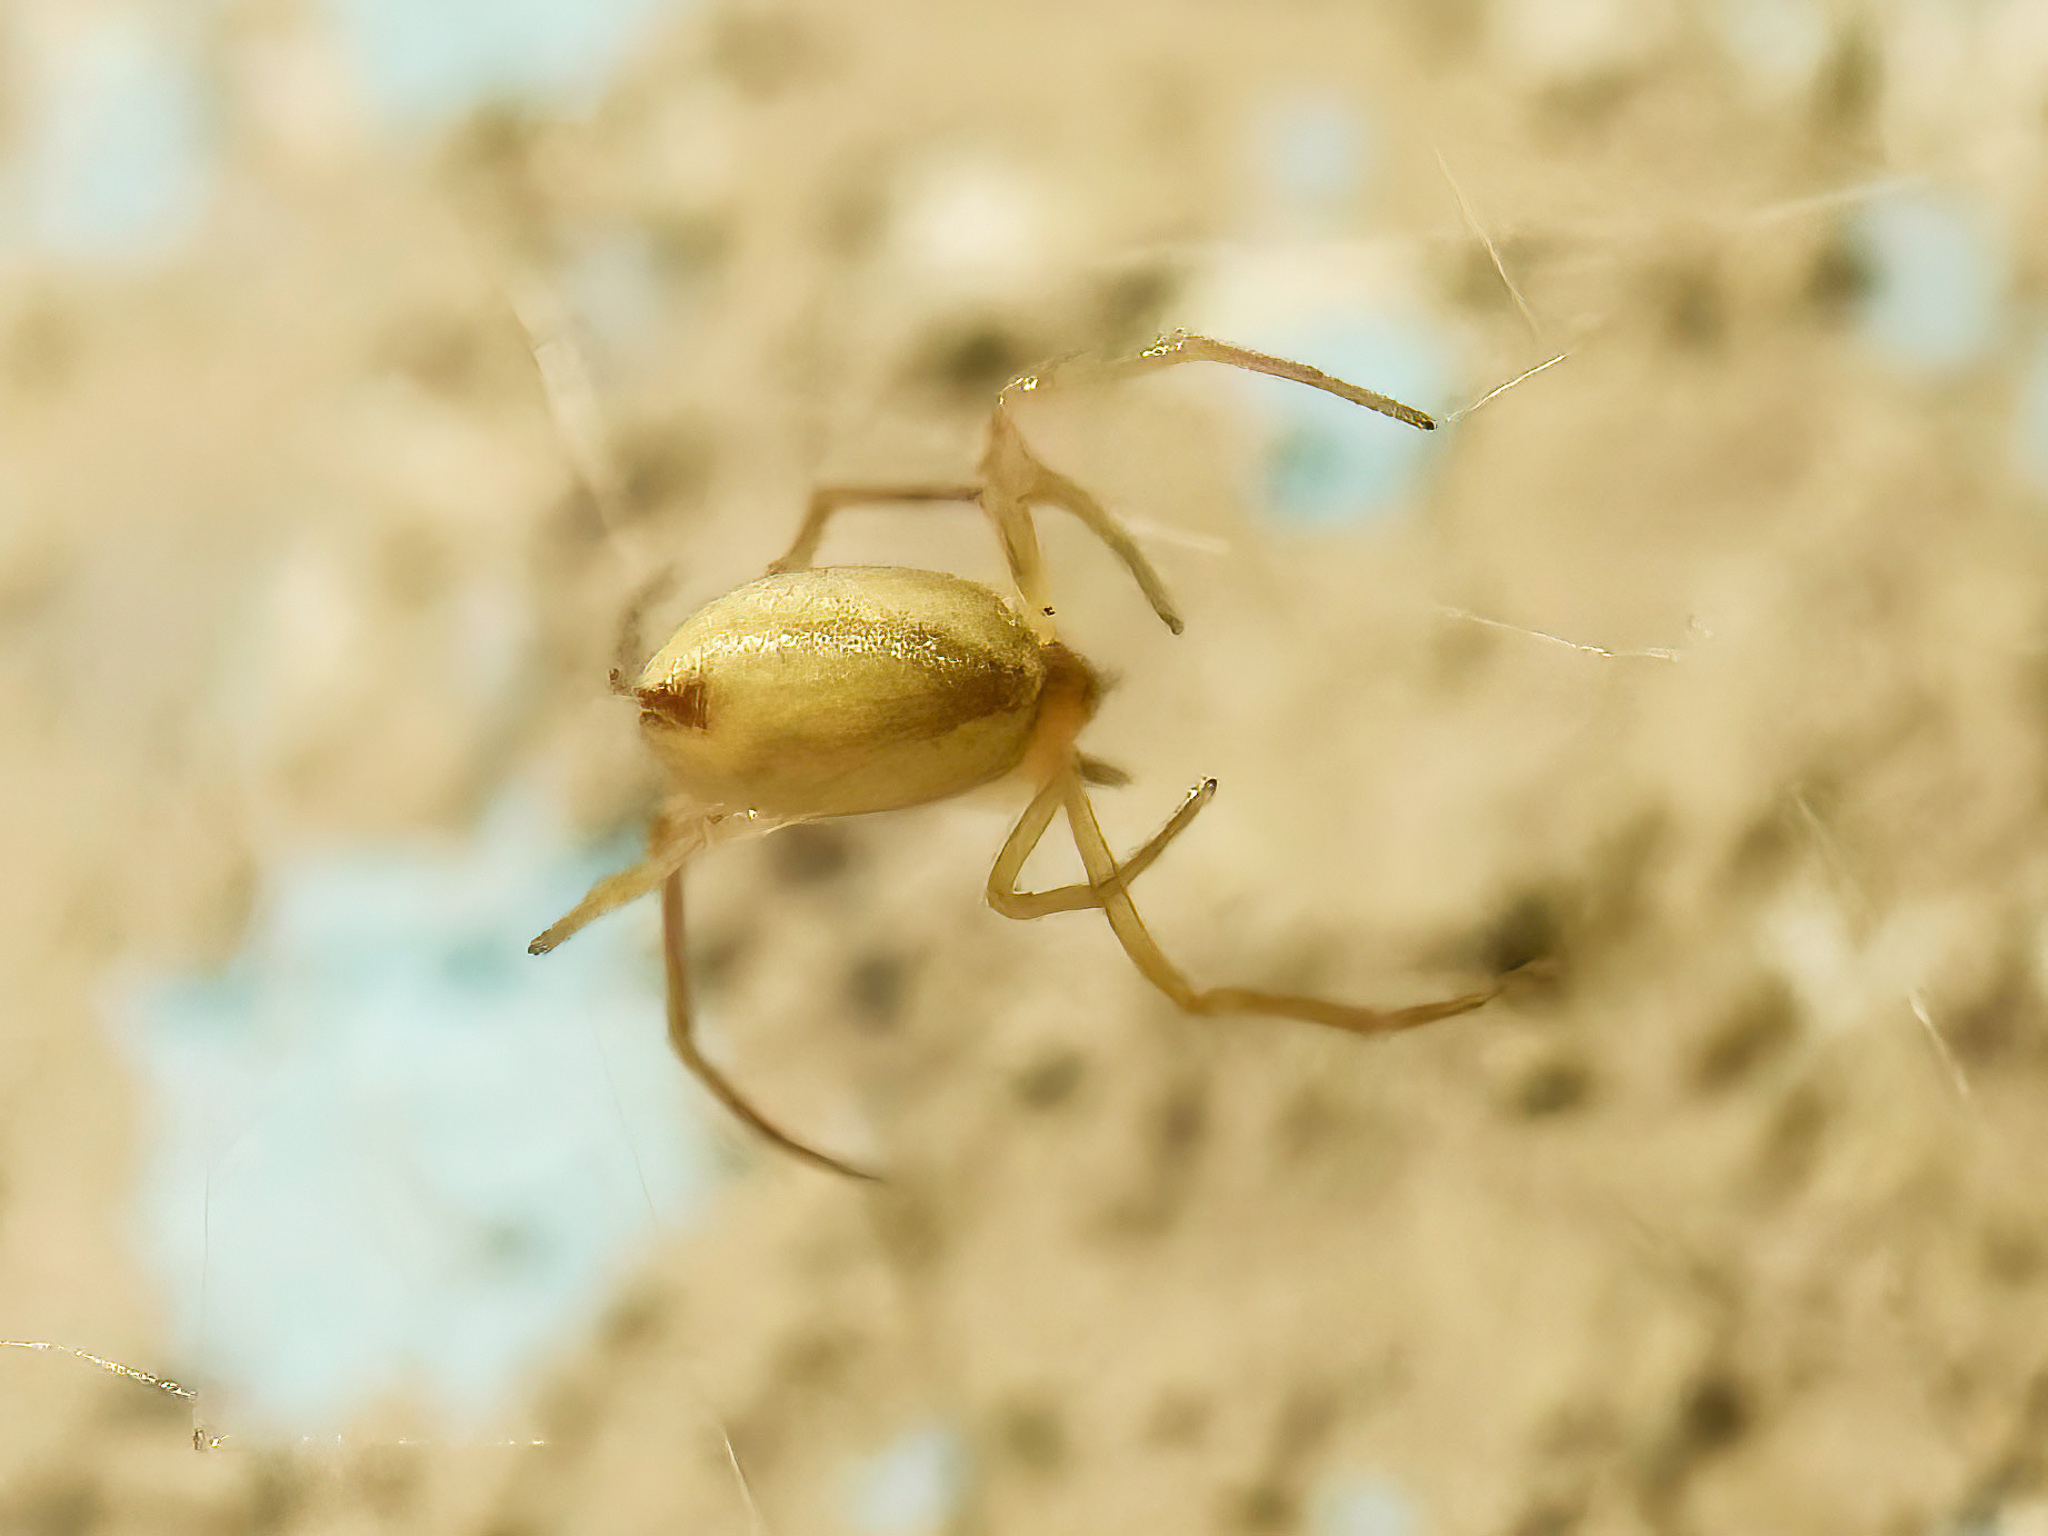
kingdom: Animalia
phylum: Arthropoda
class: Arachnida
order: Araneae
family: Theridiidae
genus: Neospintharus
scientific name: Neospintharus trigonum
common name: Horned parasitic cobweaver
